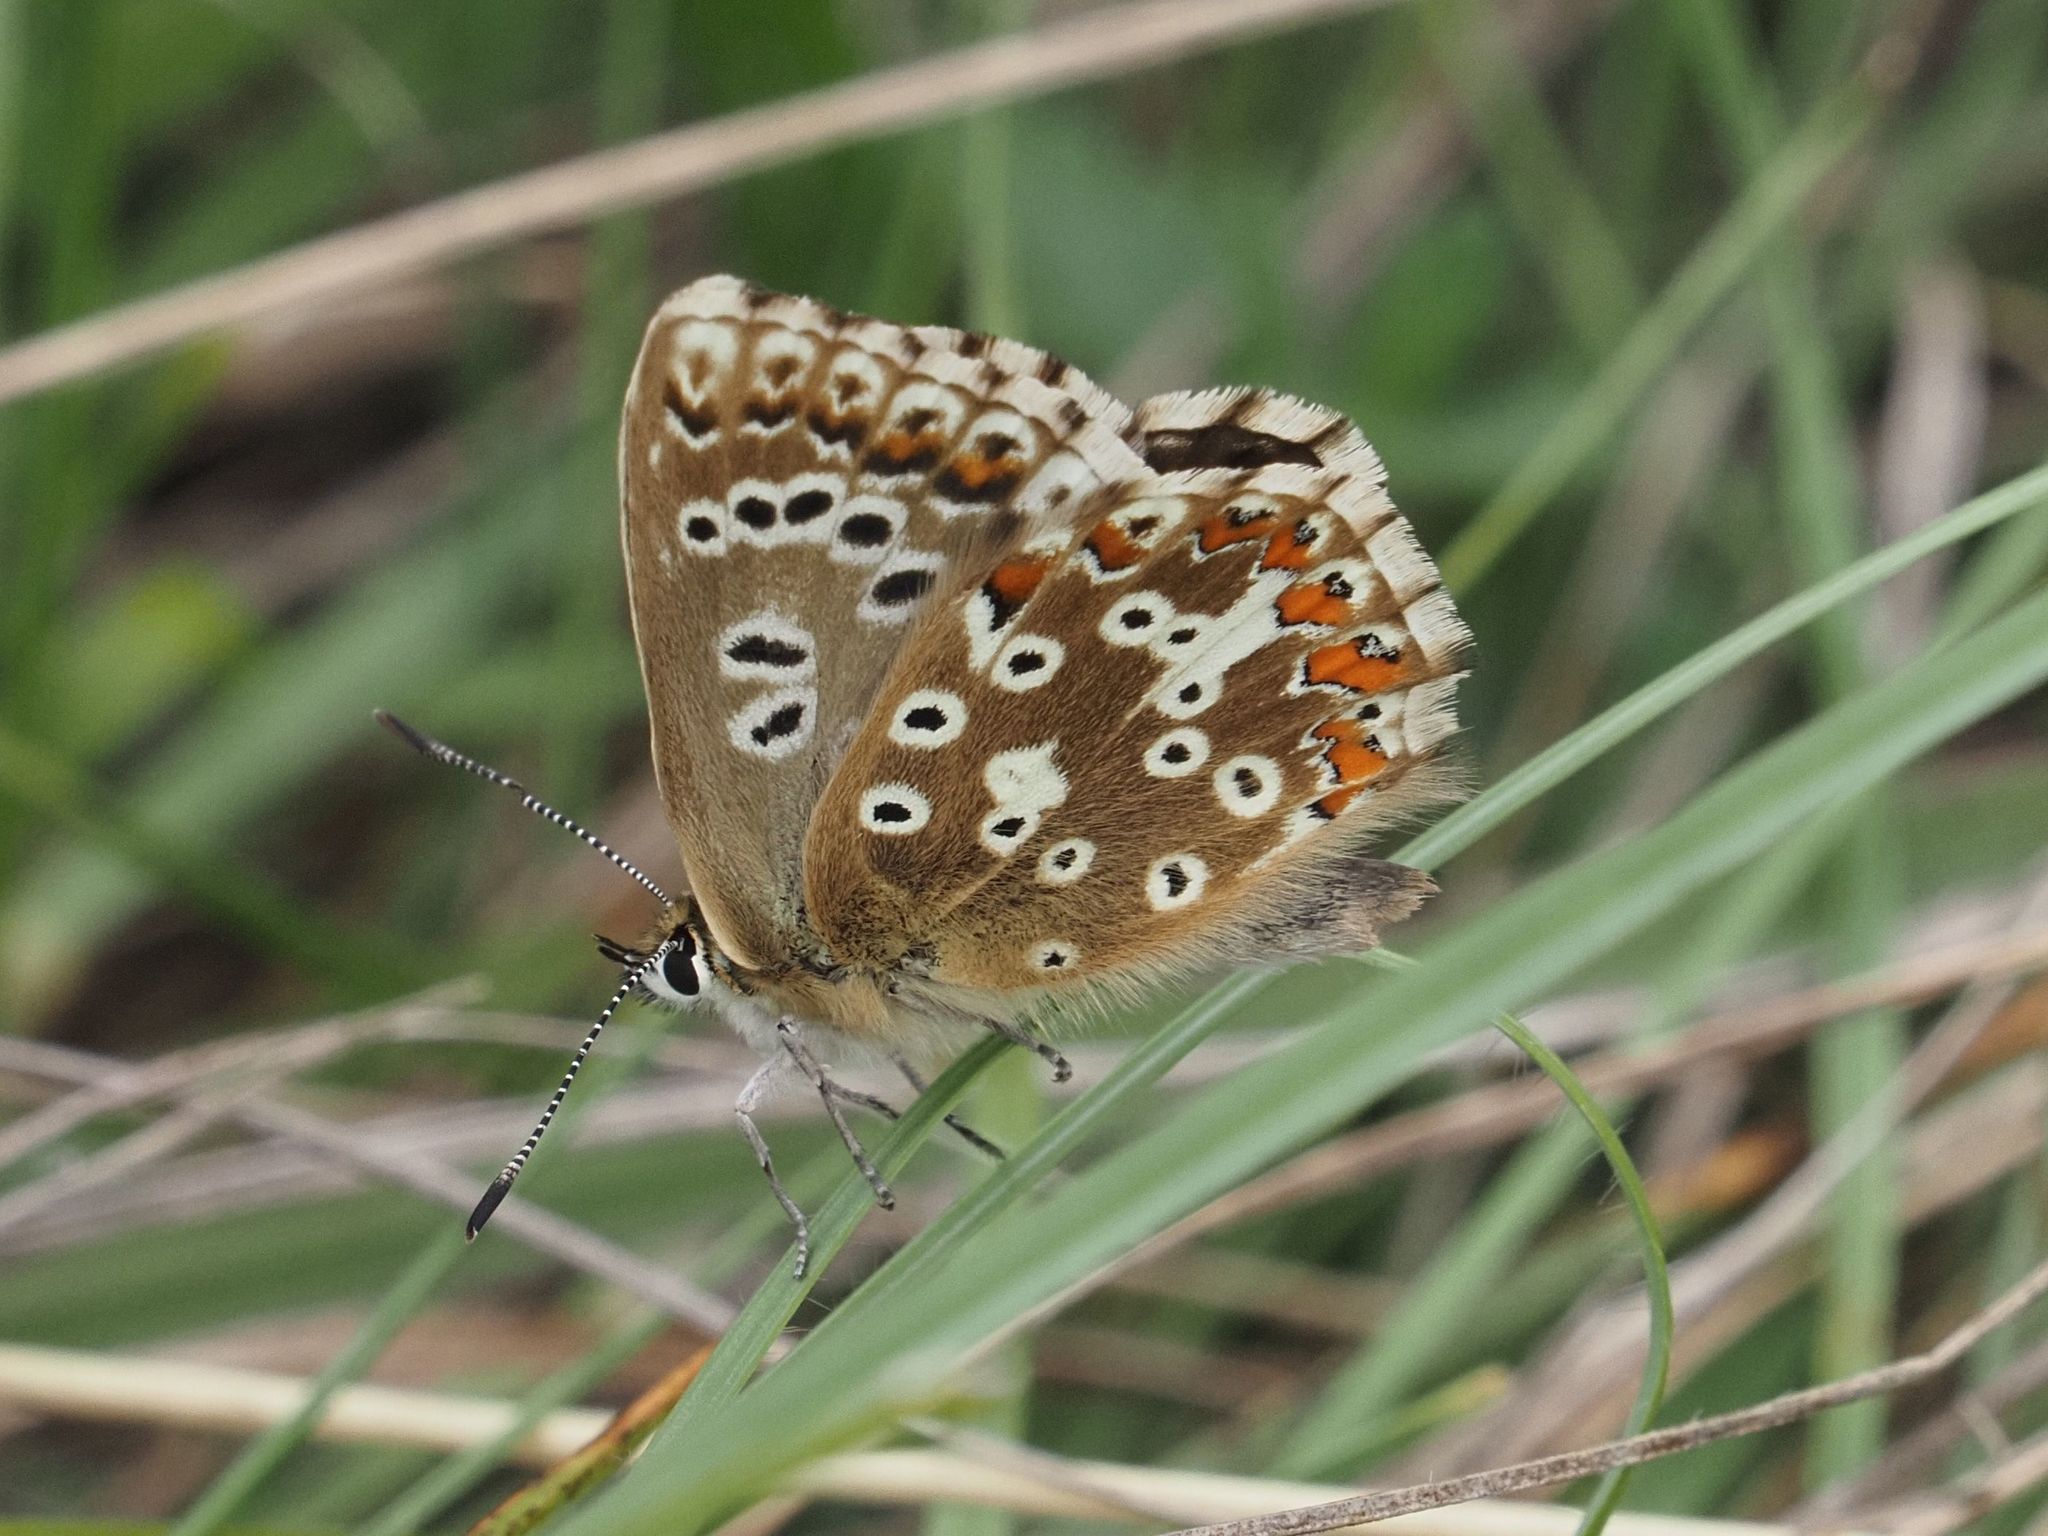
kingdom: Animalia
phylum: Arthropoda
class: Insecta
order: Lepidoptera
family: Lycaenidae
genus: Lysandra
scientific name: Lysandra coridon
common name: Chalkhill blue
